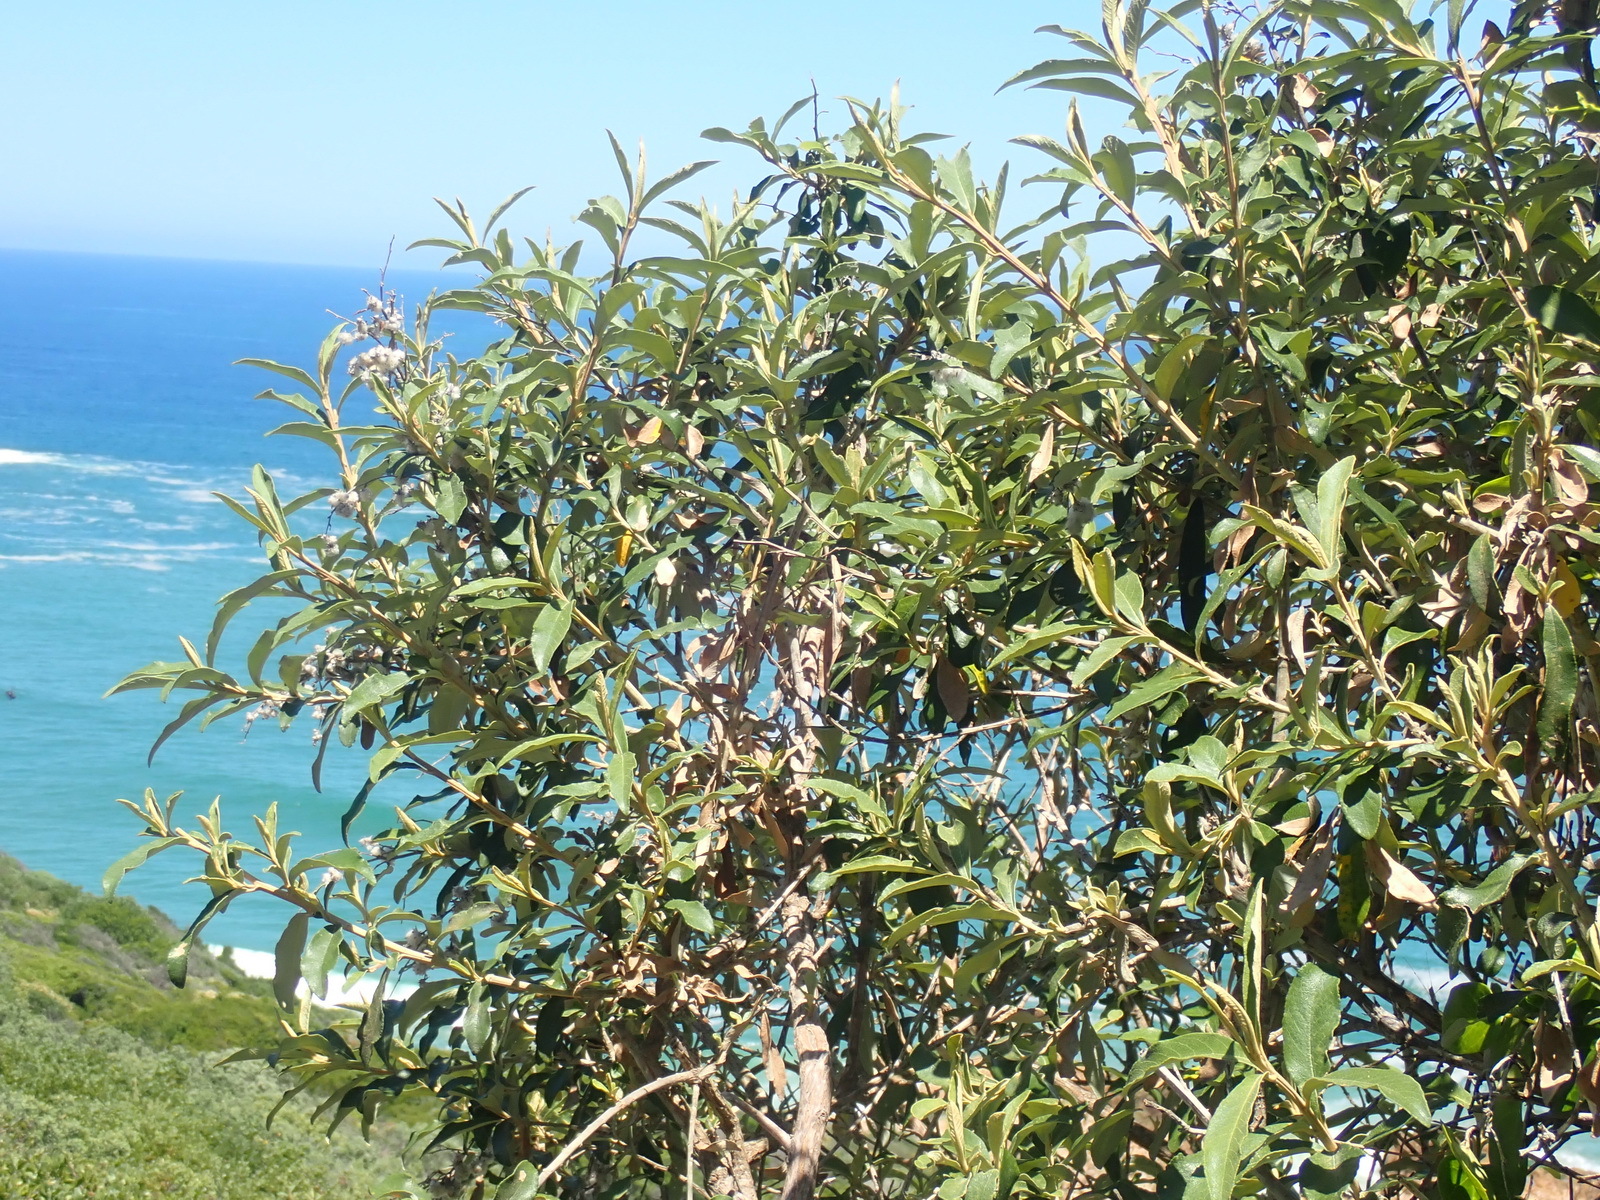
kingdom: Plantae
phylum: Tracheophyta
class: Magnoliopsida
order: Asterales
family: Asteraceae
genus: Tarchonanthus
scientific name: Tarchonanthus littoralis
